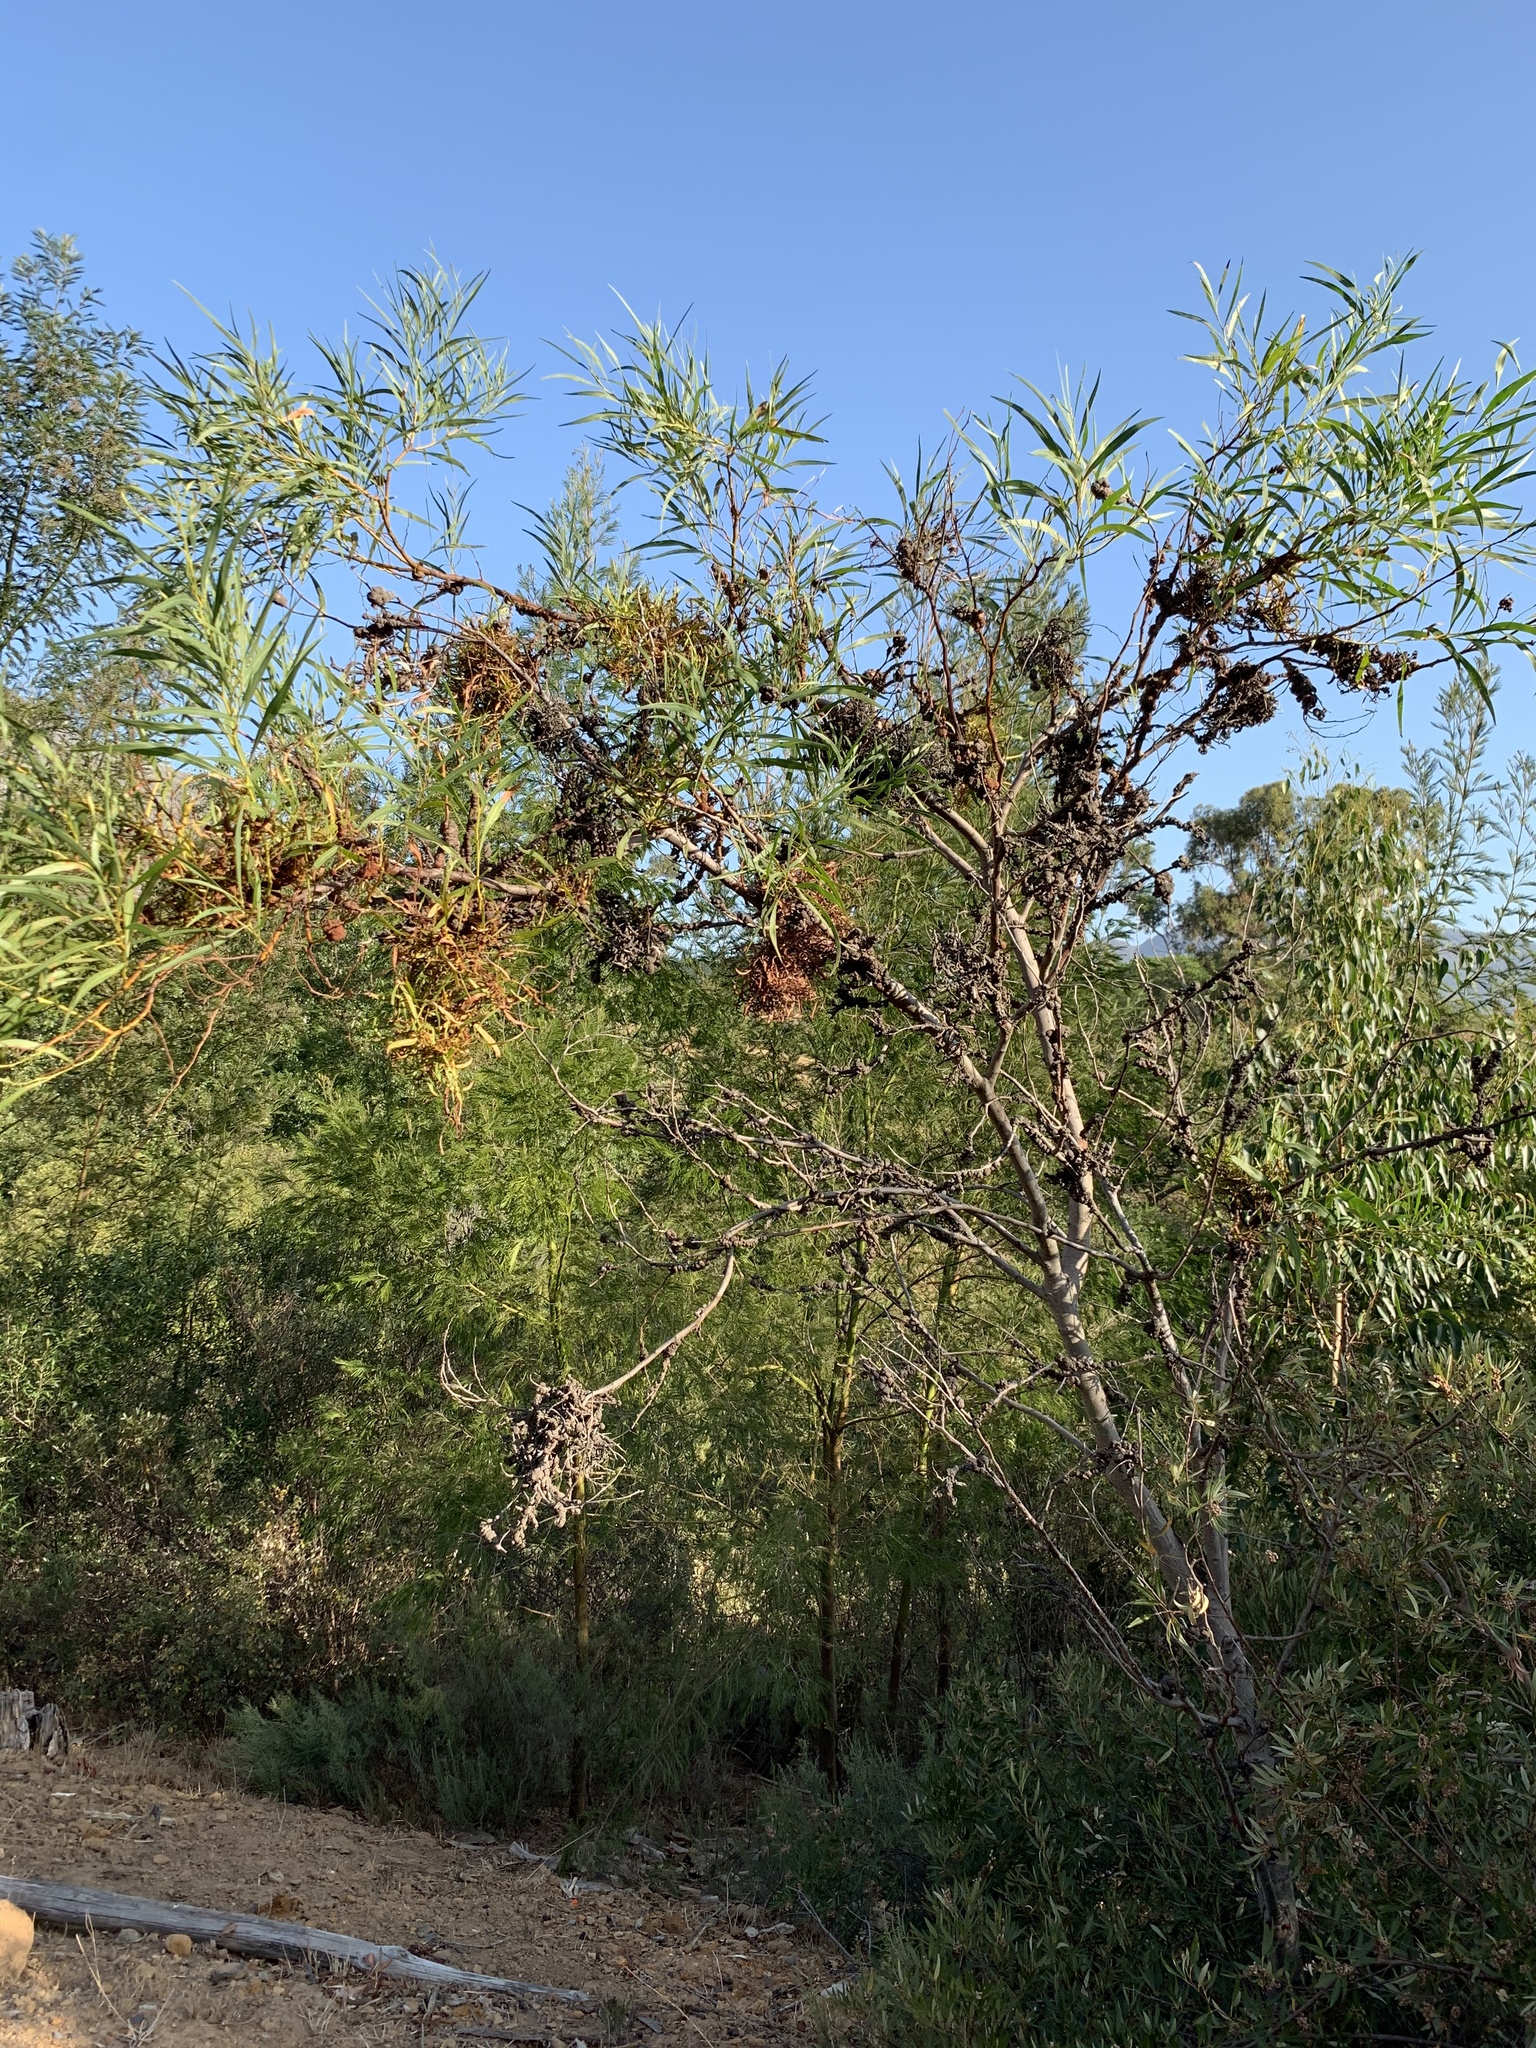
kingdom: Plantae
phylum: Tracheophyta
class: Magnoliopsida
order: Fabales
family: Fabaceae
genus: Acacia
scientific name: Acacia saligna
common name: Orange wattle
